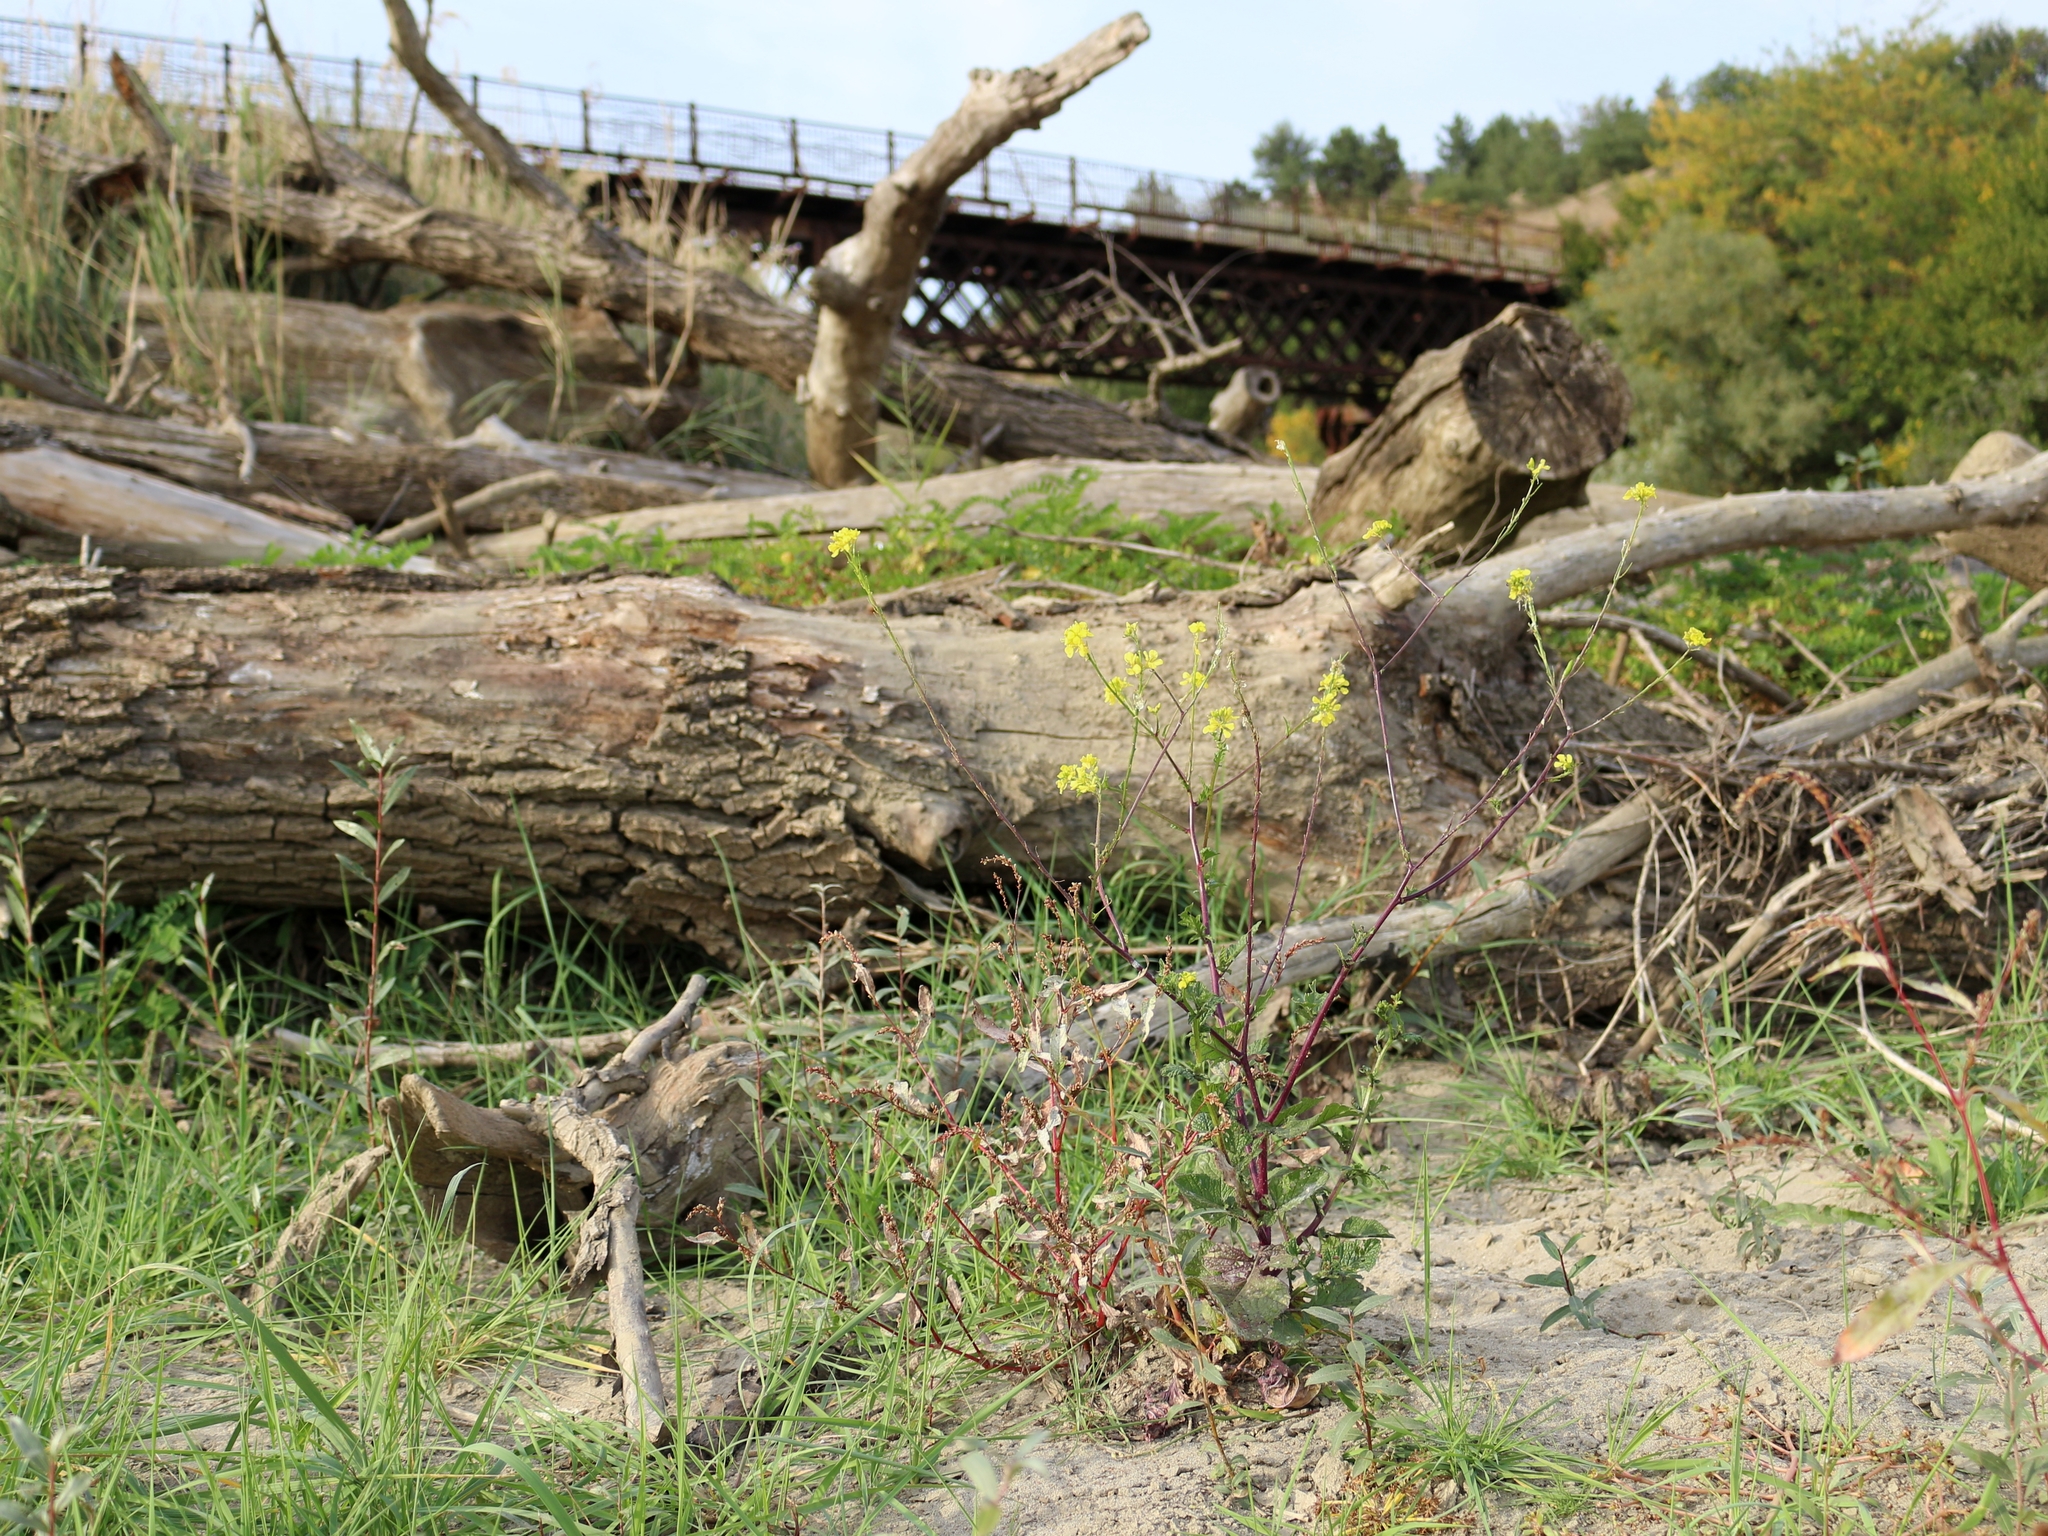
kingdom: Plantae
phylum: Tracheophyta
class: Magnoliopsida
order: Brassicales
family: Brassicaceae
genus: Sinapis
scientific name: Sinapis arvensis
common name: Charlock
